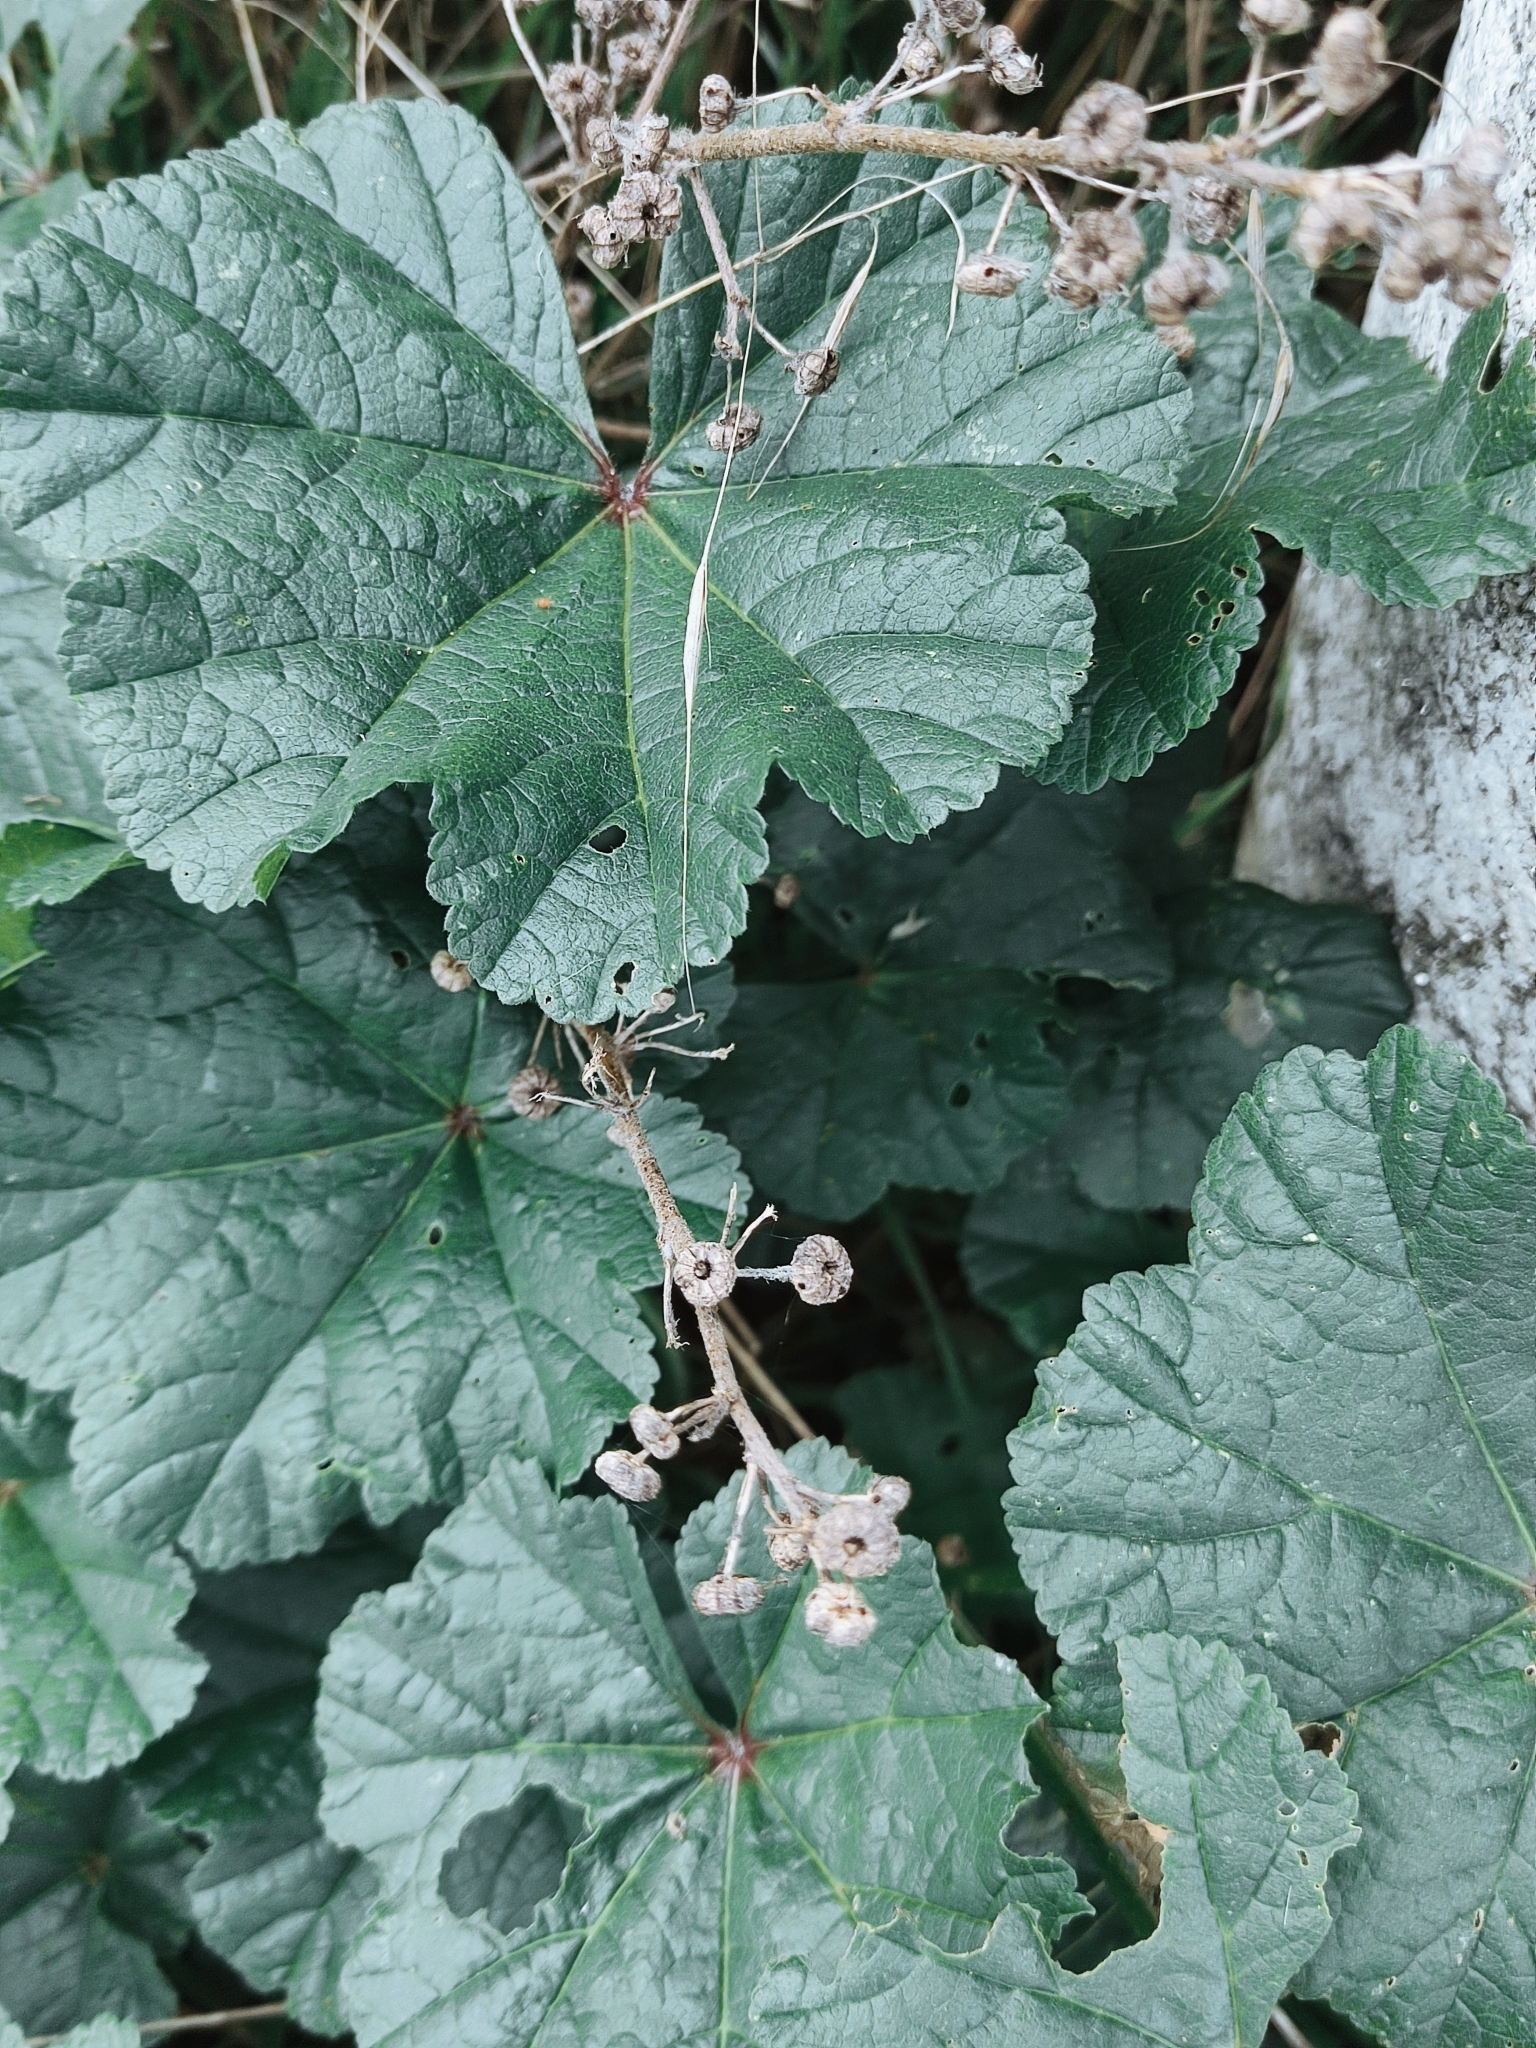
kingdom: Plantae
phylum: Tracheophyta
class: Magnoliopsida
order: Malvales
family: Malvaceae
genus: Malva
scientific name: Malva sylvestris
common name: Common mallow
